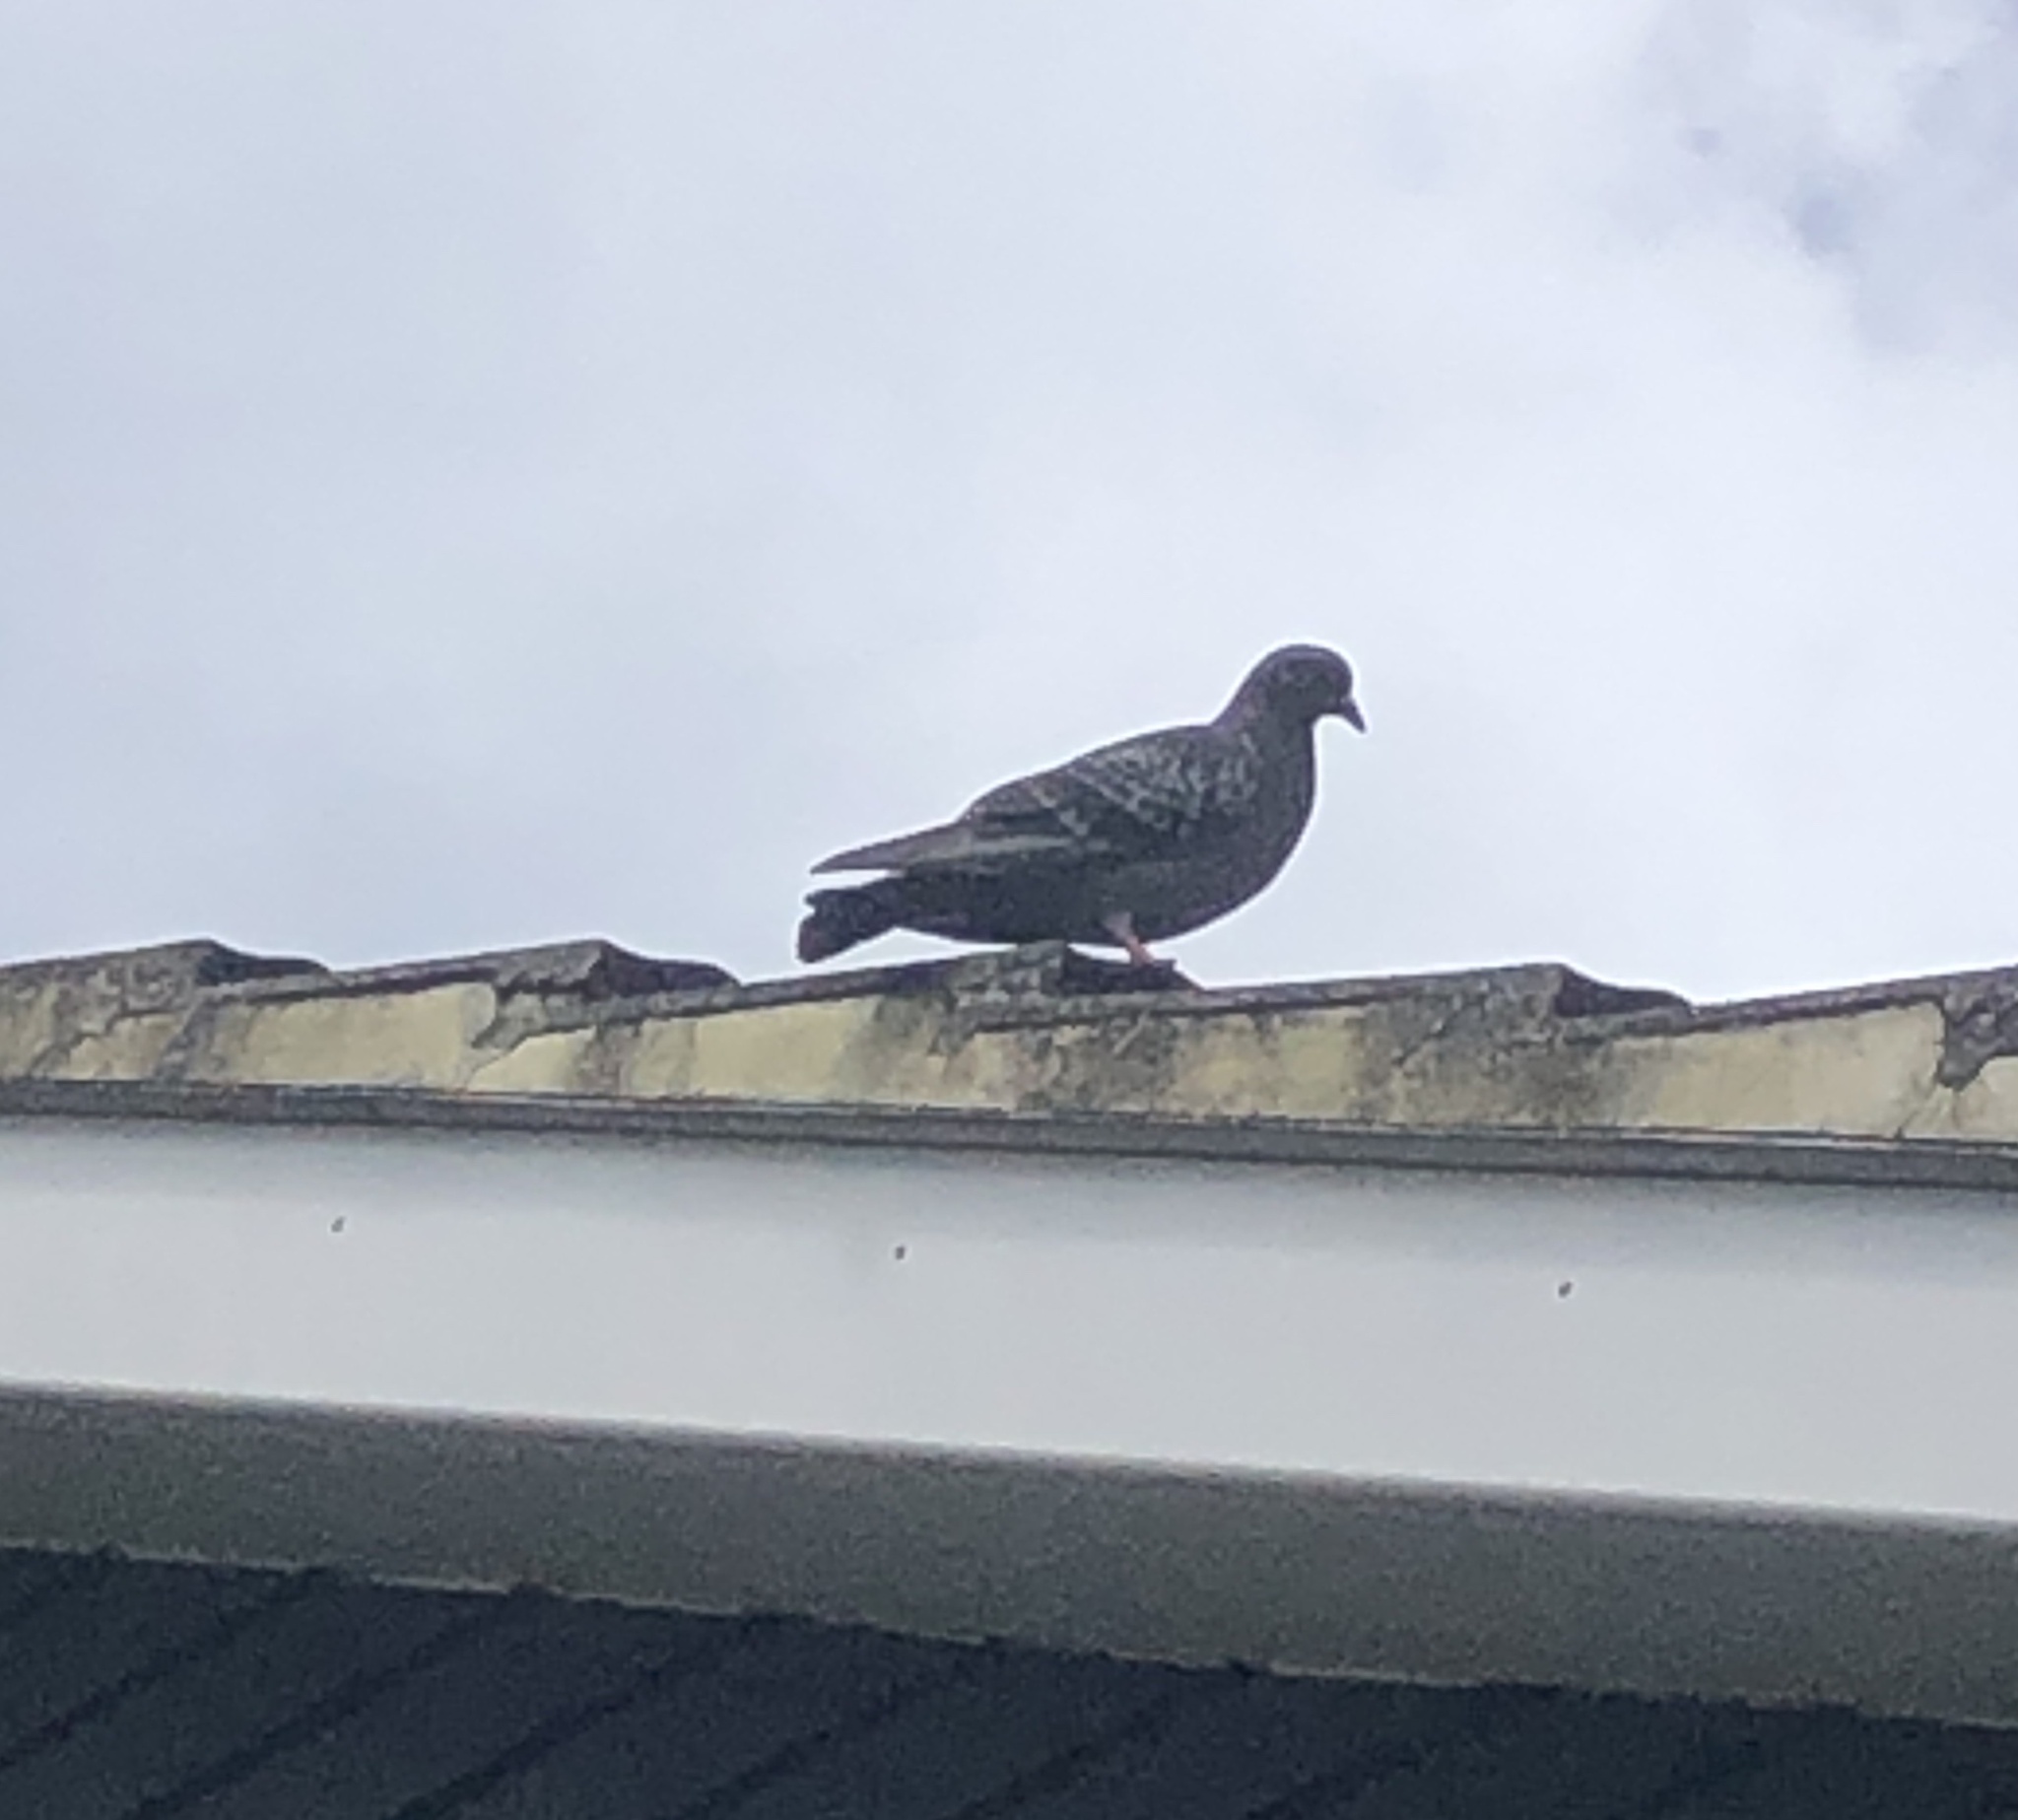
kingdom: Animalia
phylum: Chordata
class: Aves
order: Columbiformes
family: Columbidae
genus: Columba
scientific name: Columba livia
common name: Rock pigeon
